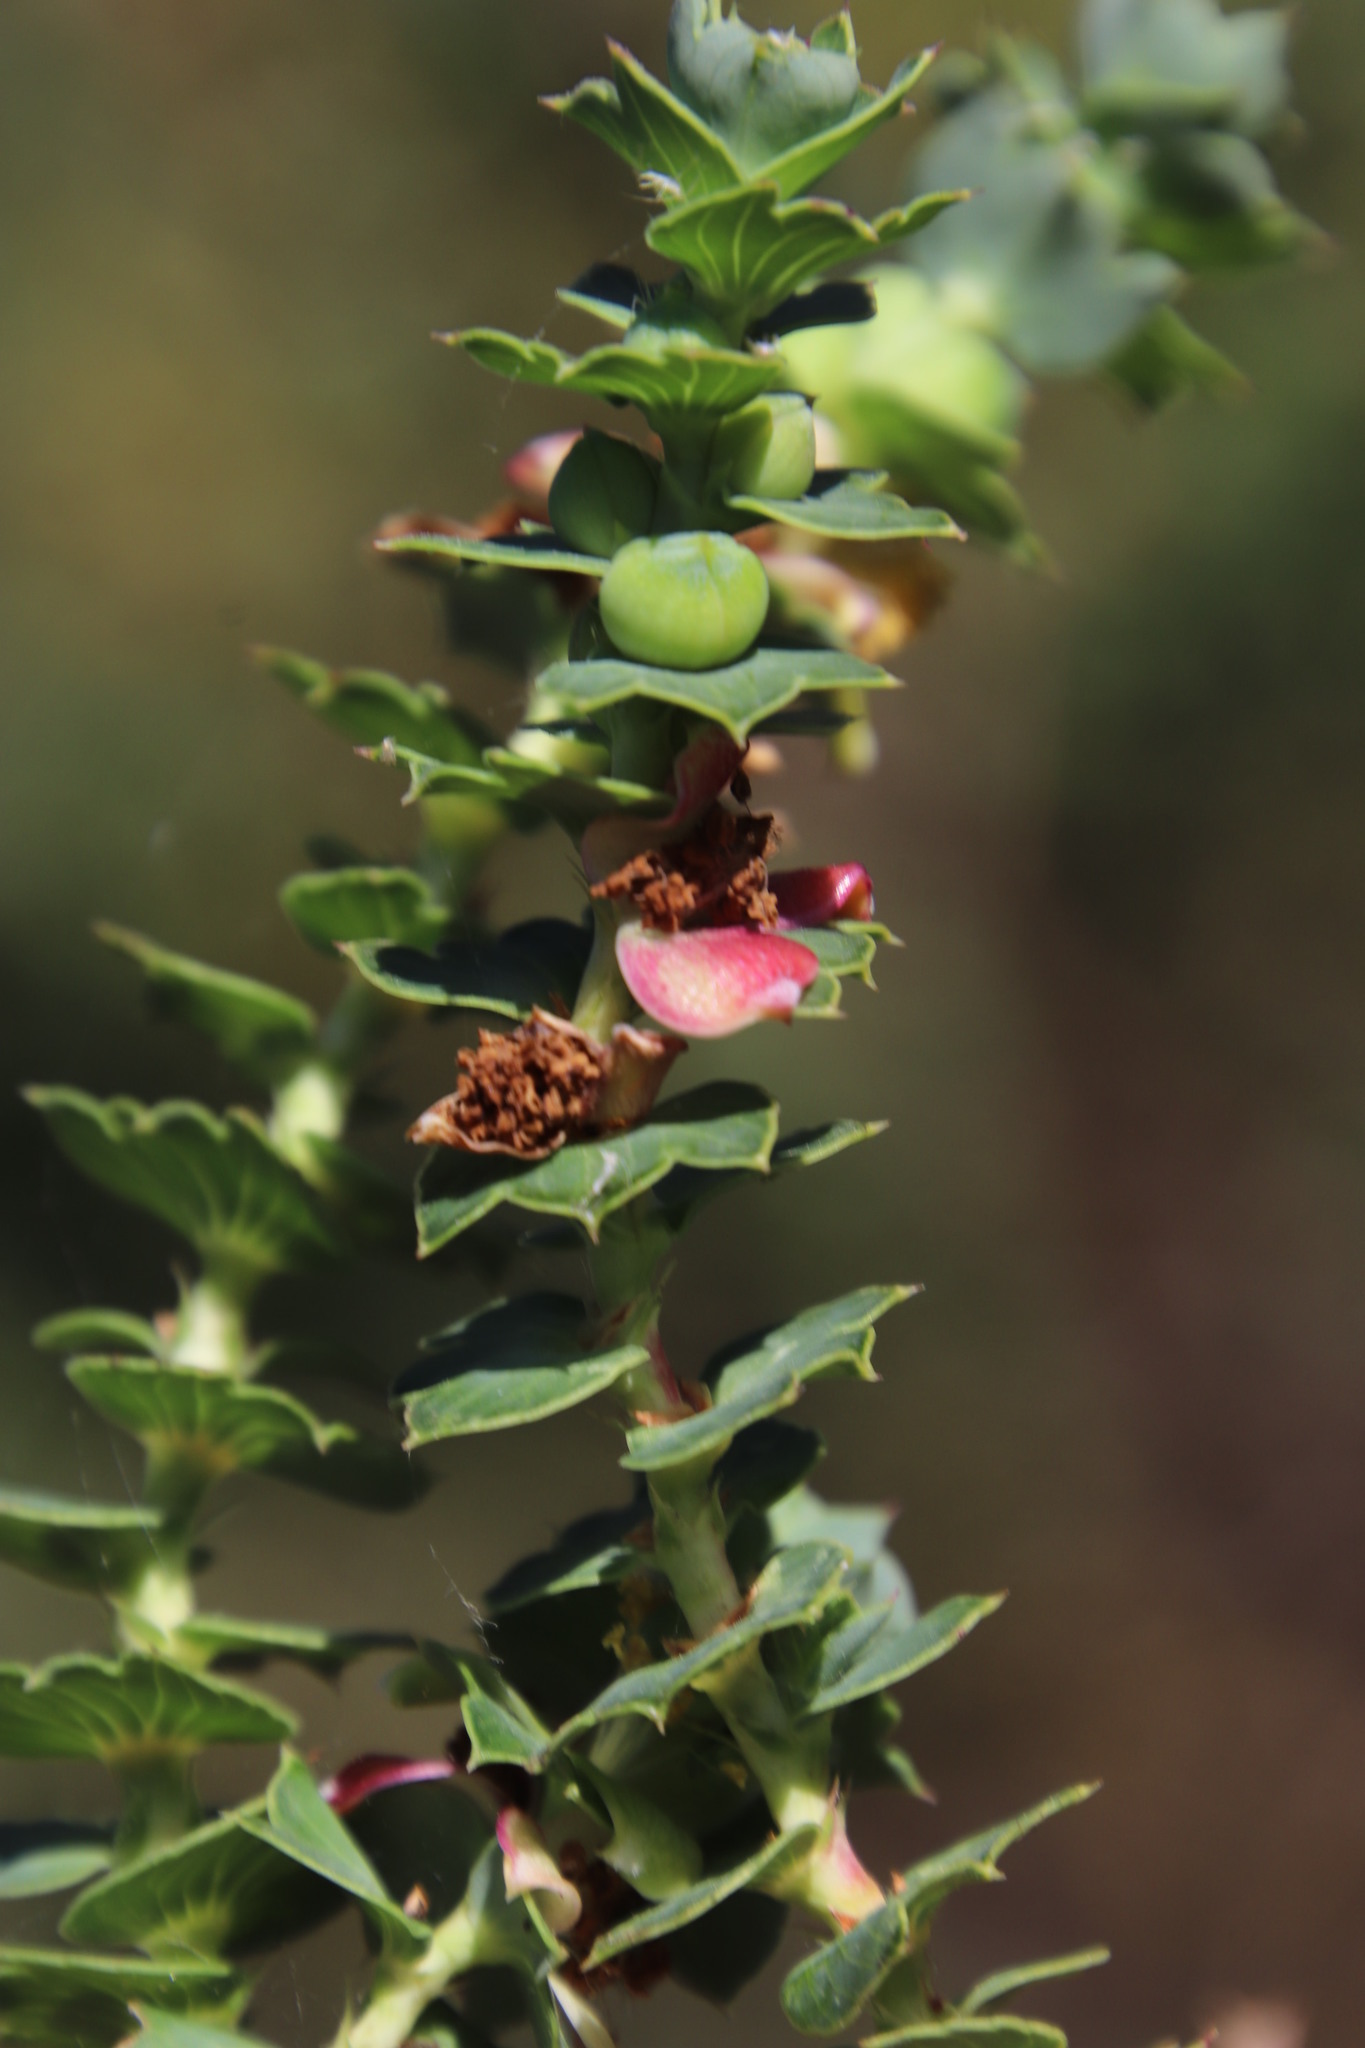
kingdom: Plantae
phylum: Tracheophyta
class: Magnoliopsida
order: Rosales
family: Rosaceae
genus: Cliffortia
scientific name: Cliffortia schlechteri
